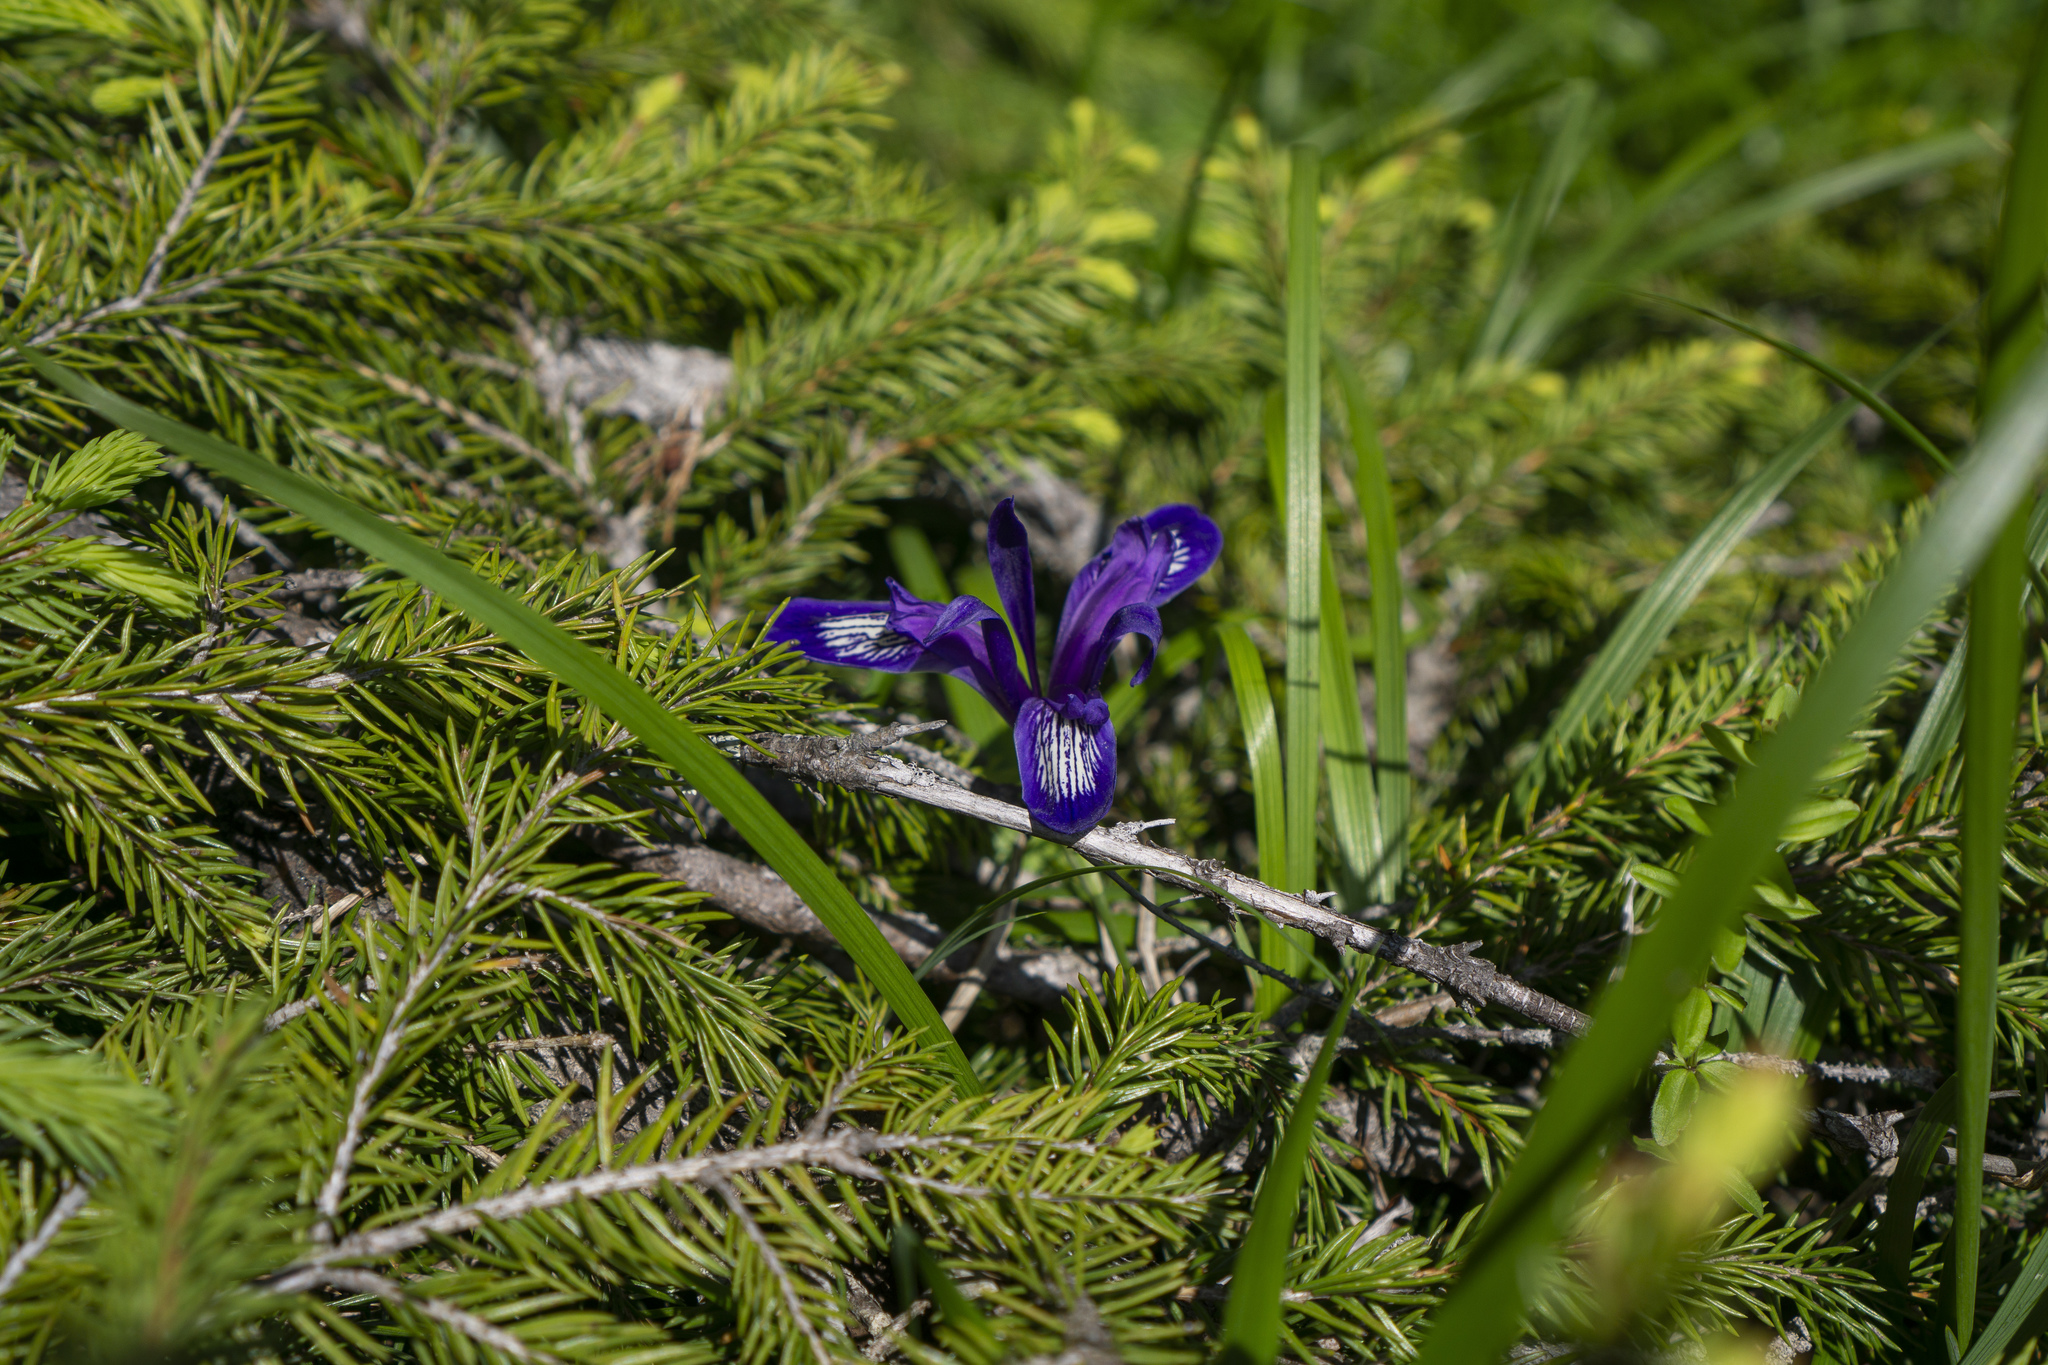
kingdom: Plantae
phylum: Tracheophyta
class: Liliopsida
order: Asparagales
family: Iridaceae
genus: Iris
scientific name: Iris ruthenica
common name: Purple-bract iris
